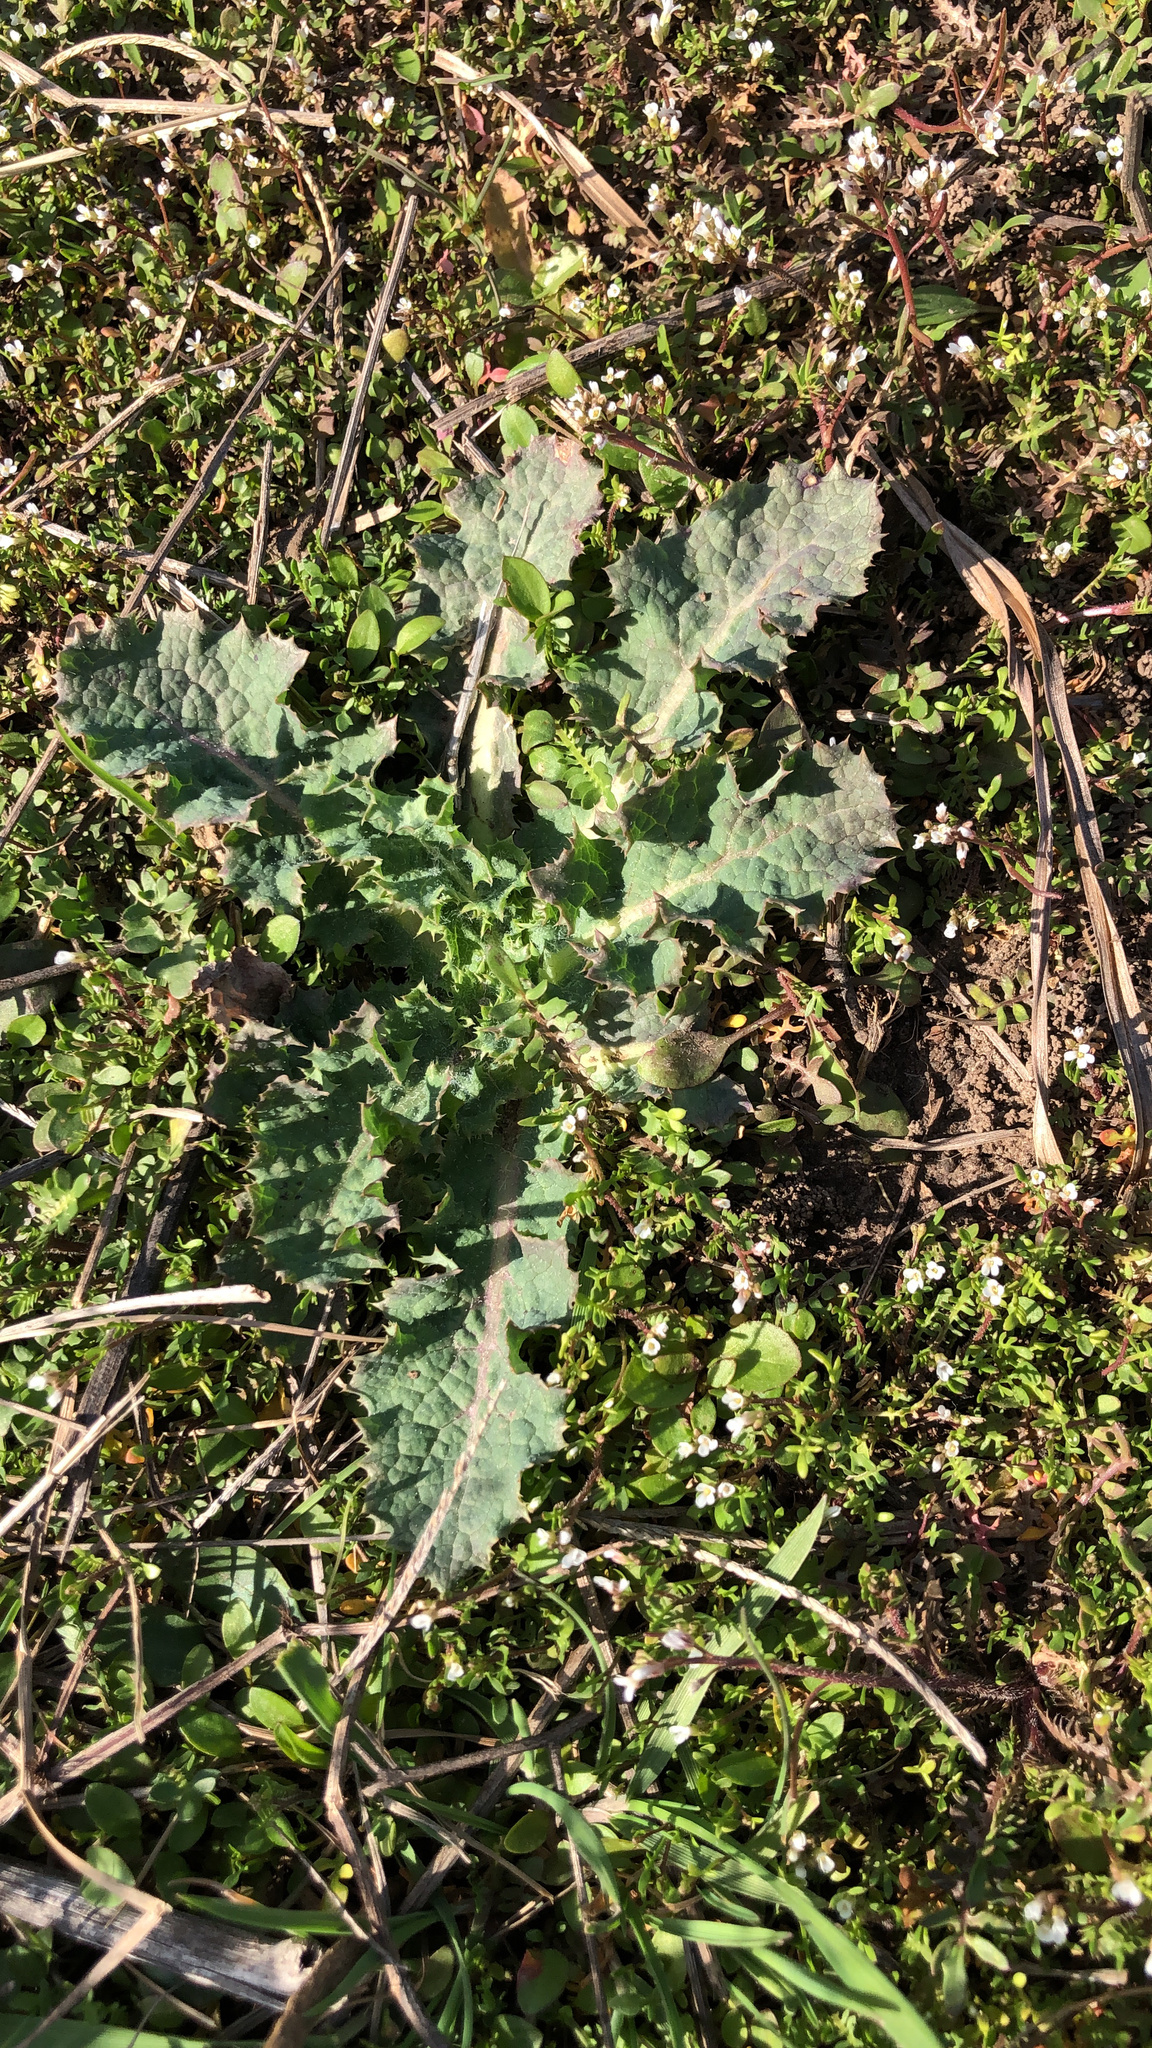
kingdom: Plantae
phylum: Tracheophyta
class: Magnoliopsida
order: Asterales
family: Asteraceae
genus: Sonchus
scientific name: Sonchus asper
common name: Prickly sow-thistle
